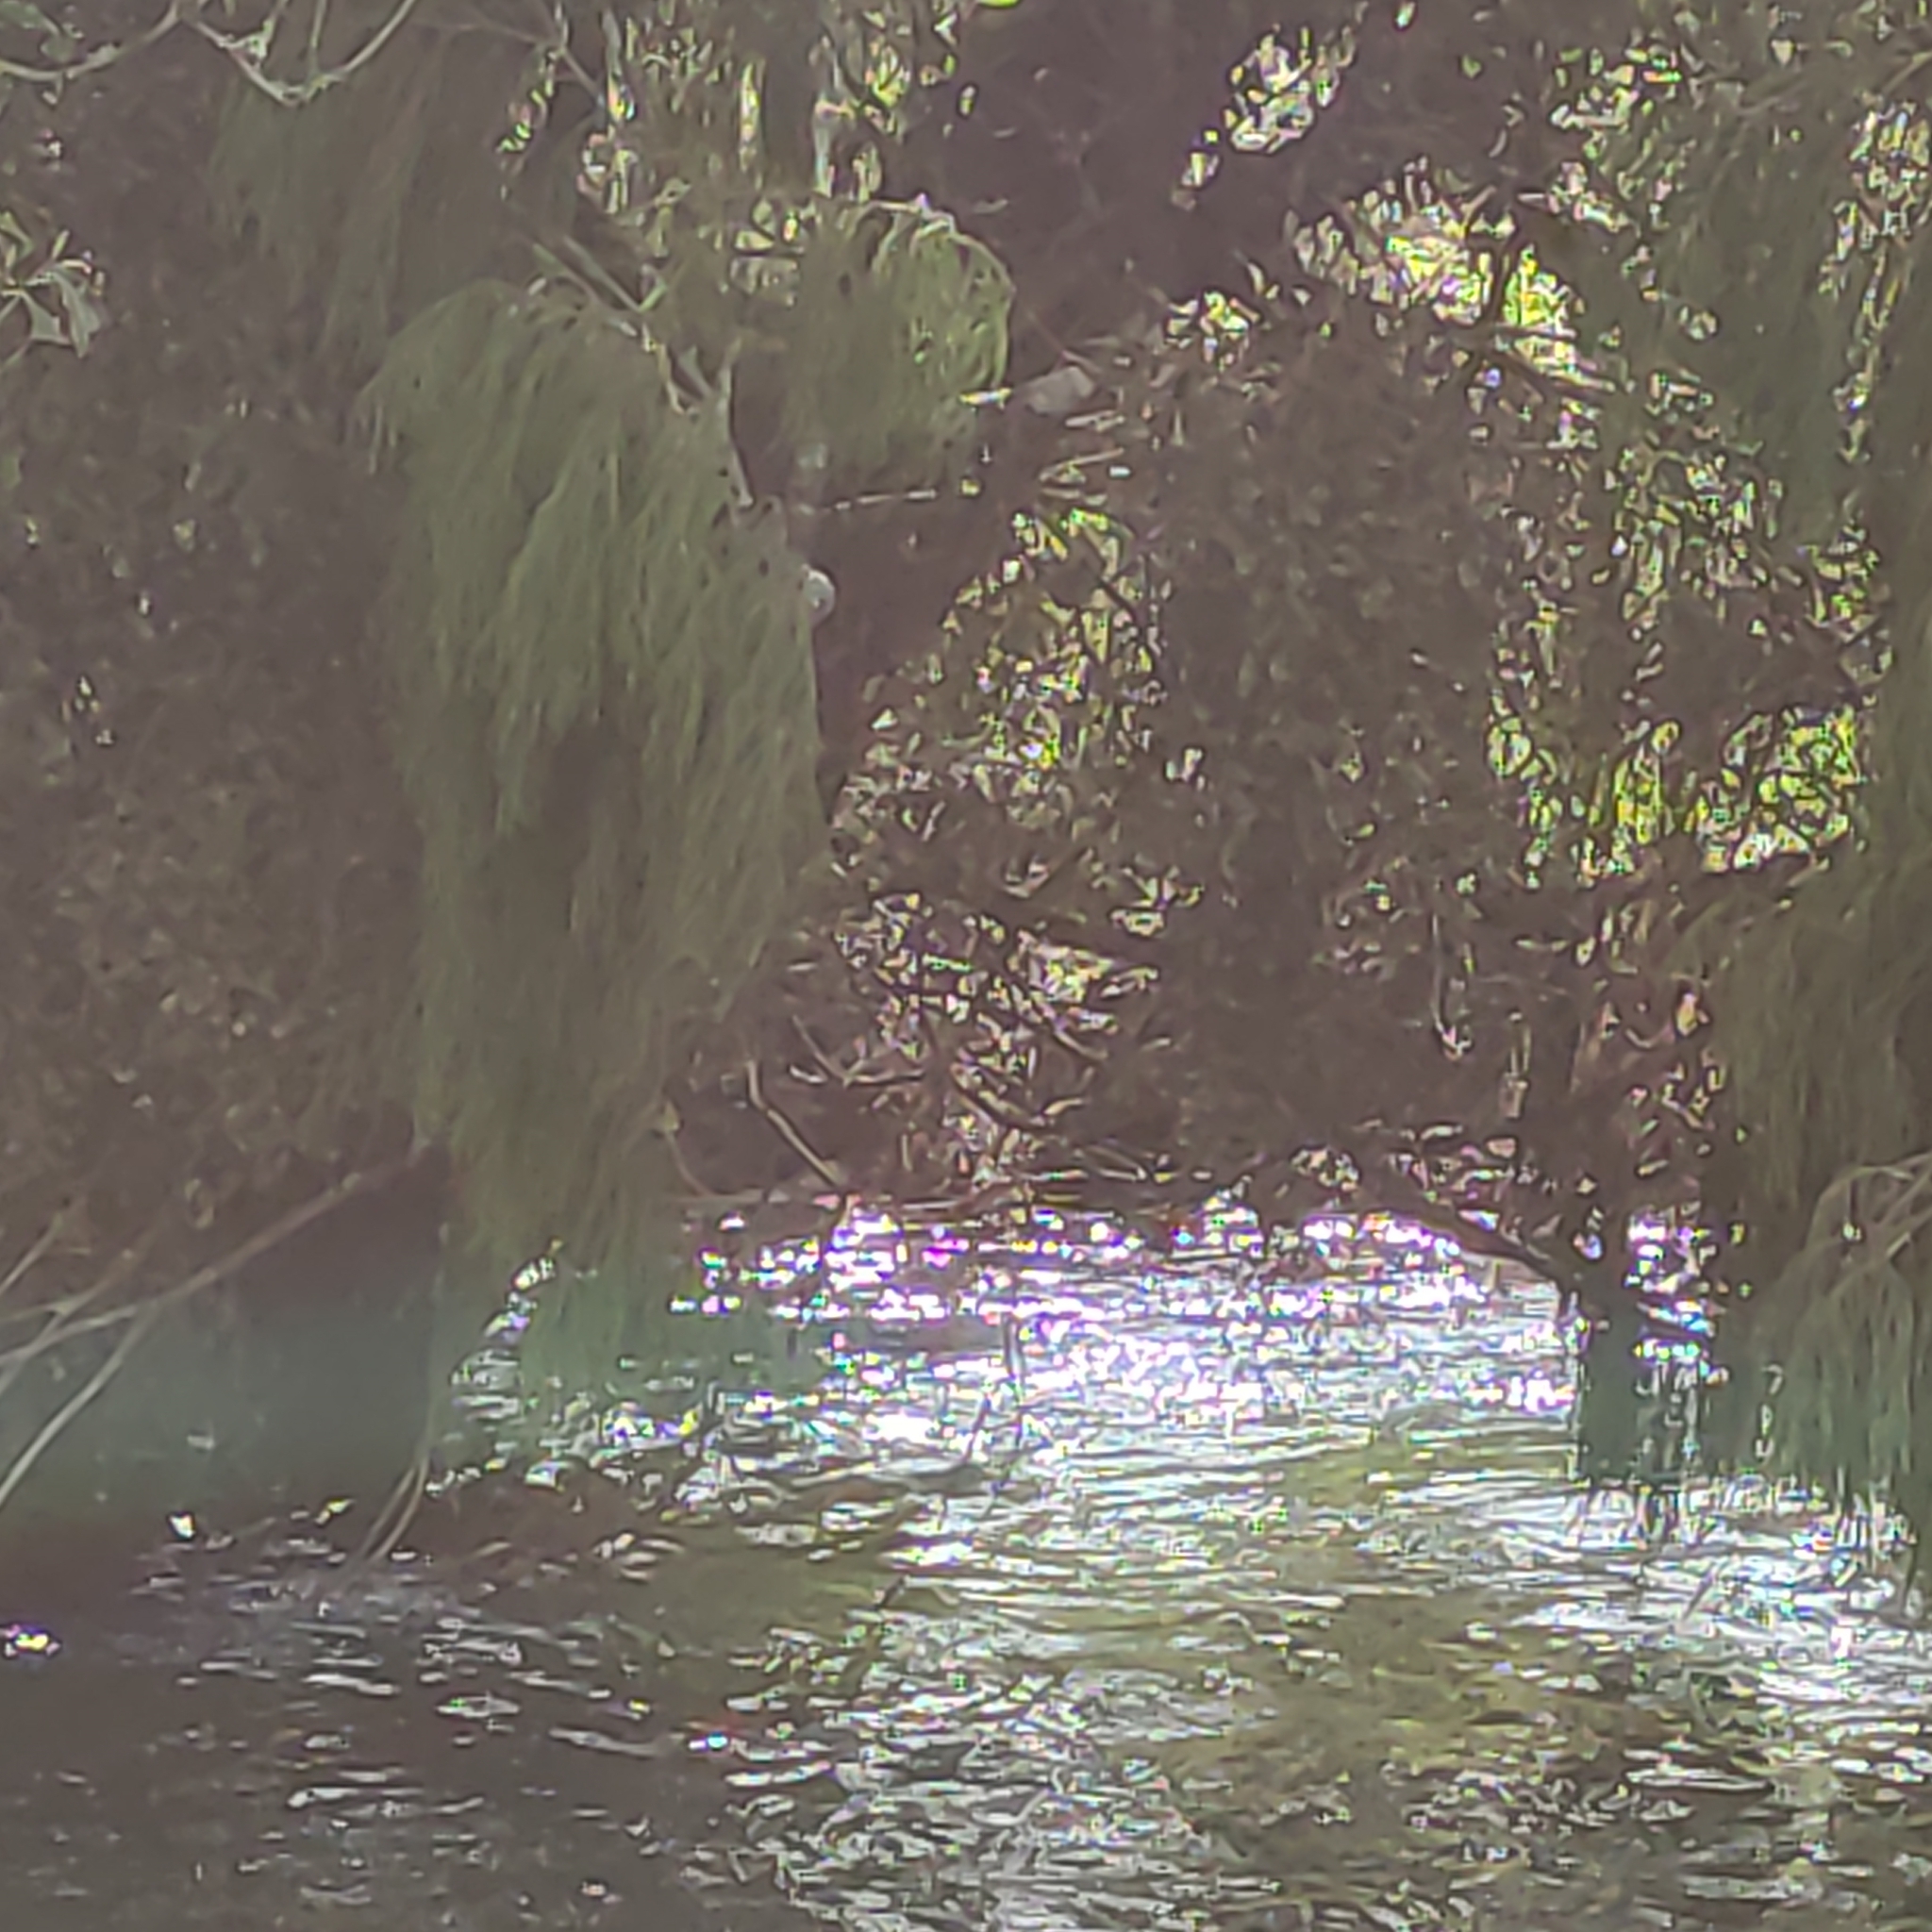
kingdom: Plantae
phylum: Tracheophyta
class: Pinopsida
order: Pinales
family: Podocarpaceae
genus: Dacrydium
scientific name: Dacrydium cupressinum
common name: Red pine
